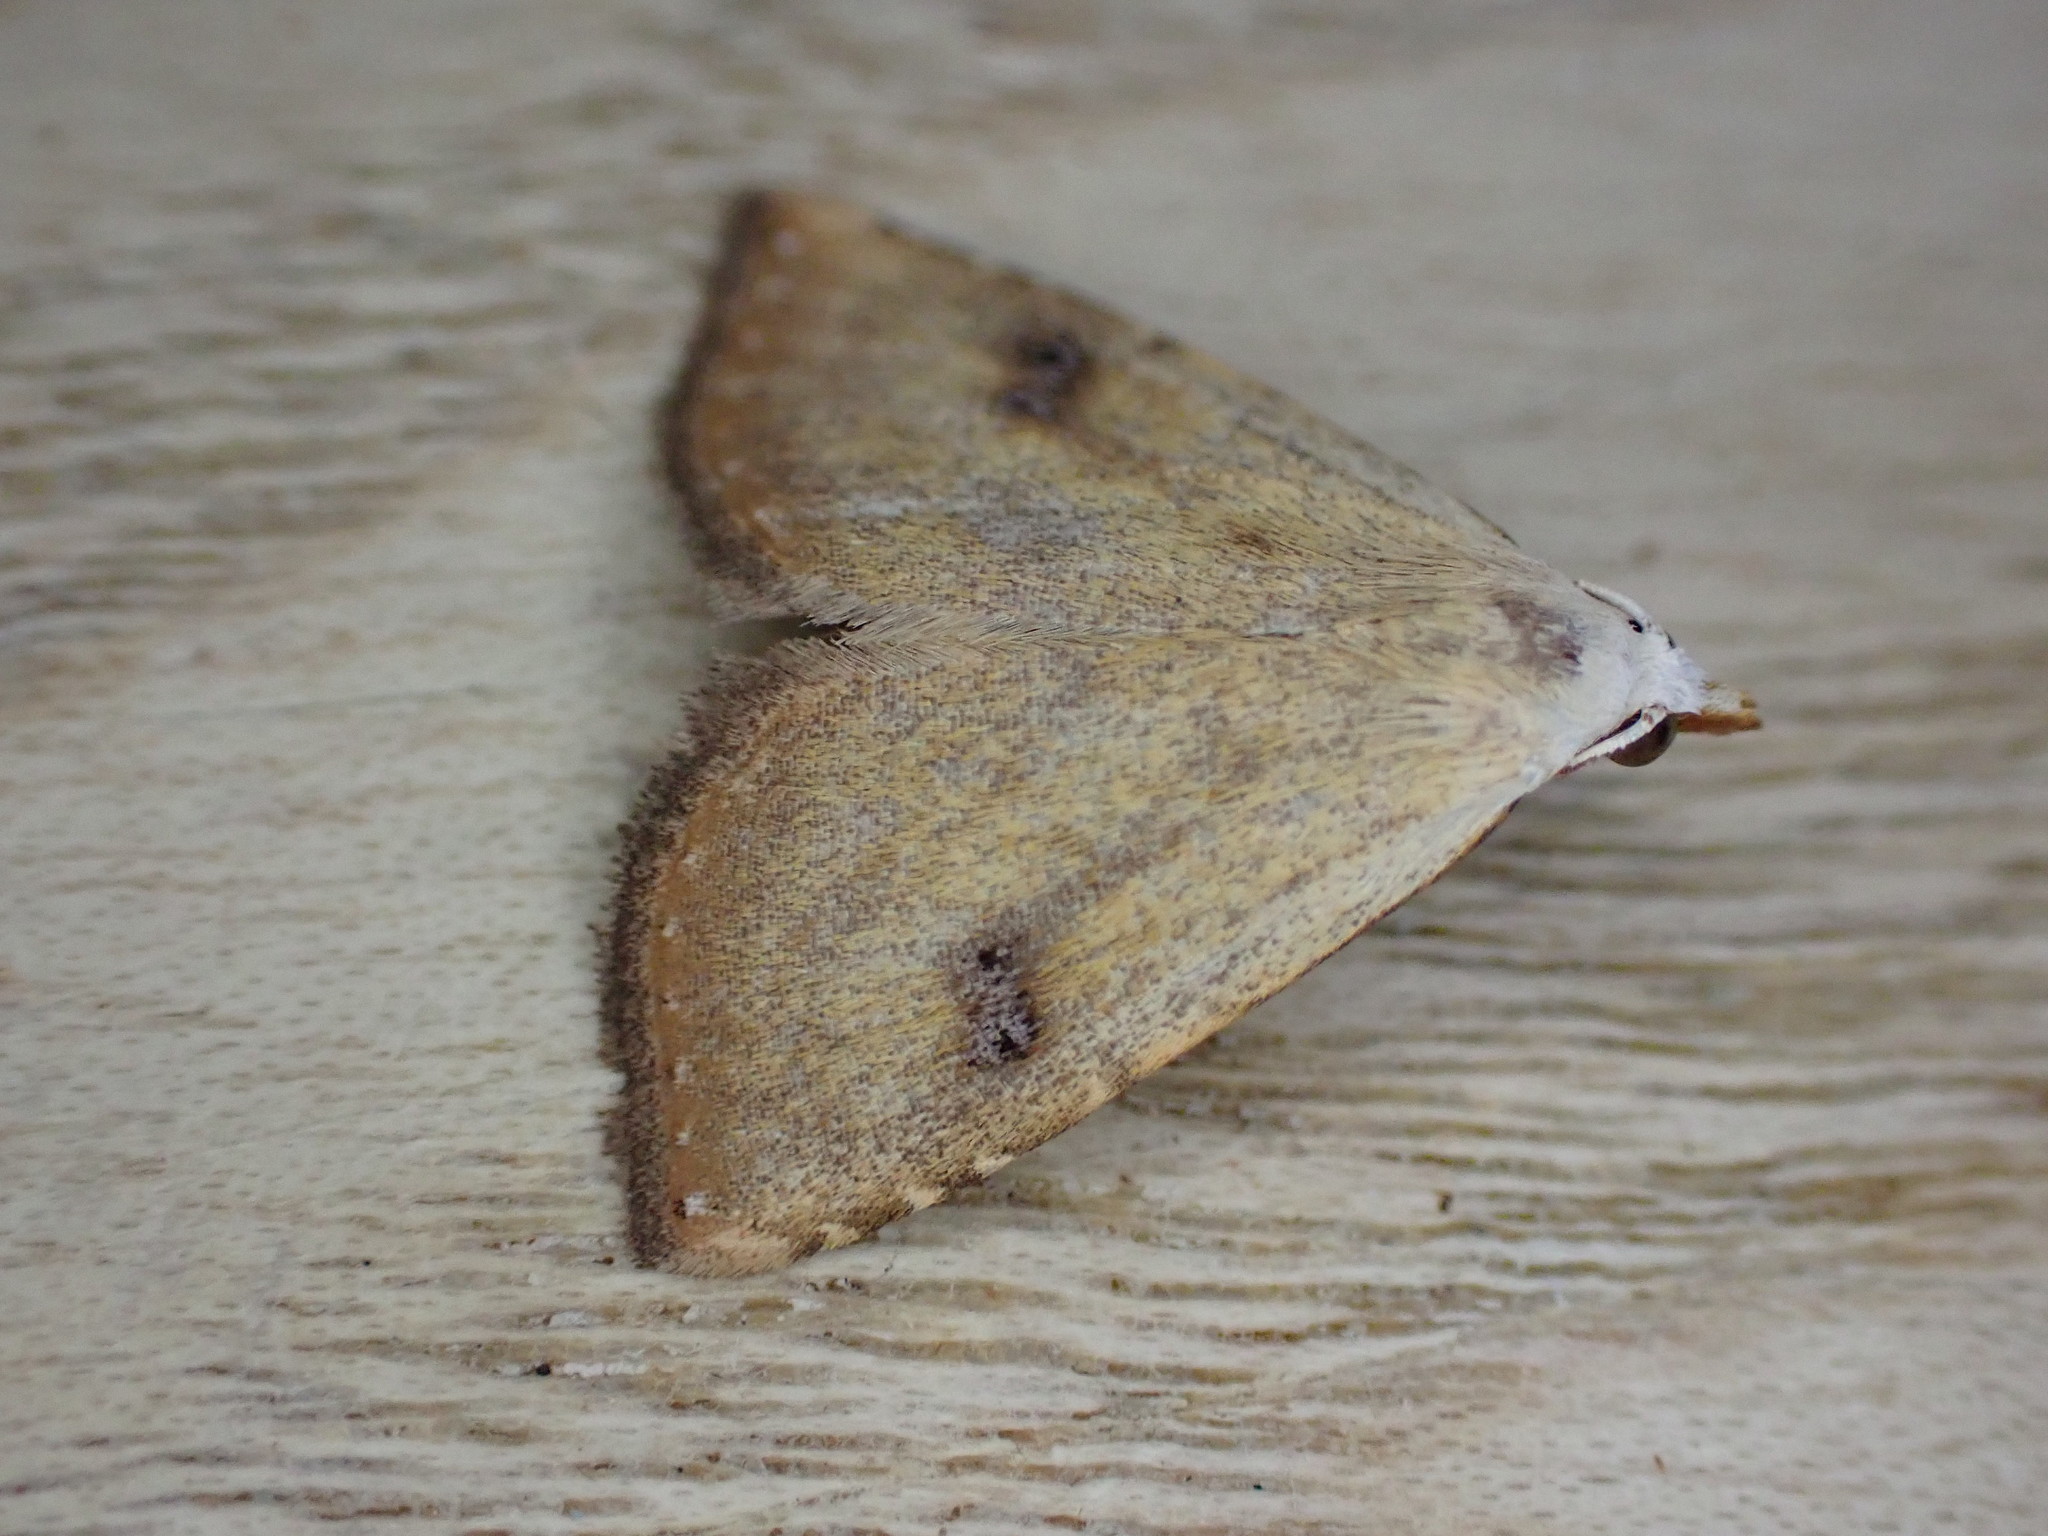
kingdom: Animalia
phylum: Arthropoda
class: Insecta
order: Lepidoptera
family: Erebidae
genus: Rivula
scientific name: Rivula sericealis
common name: Straw dot
